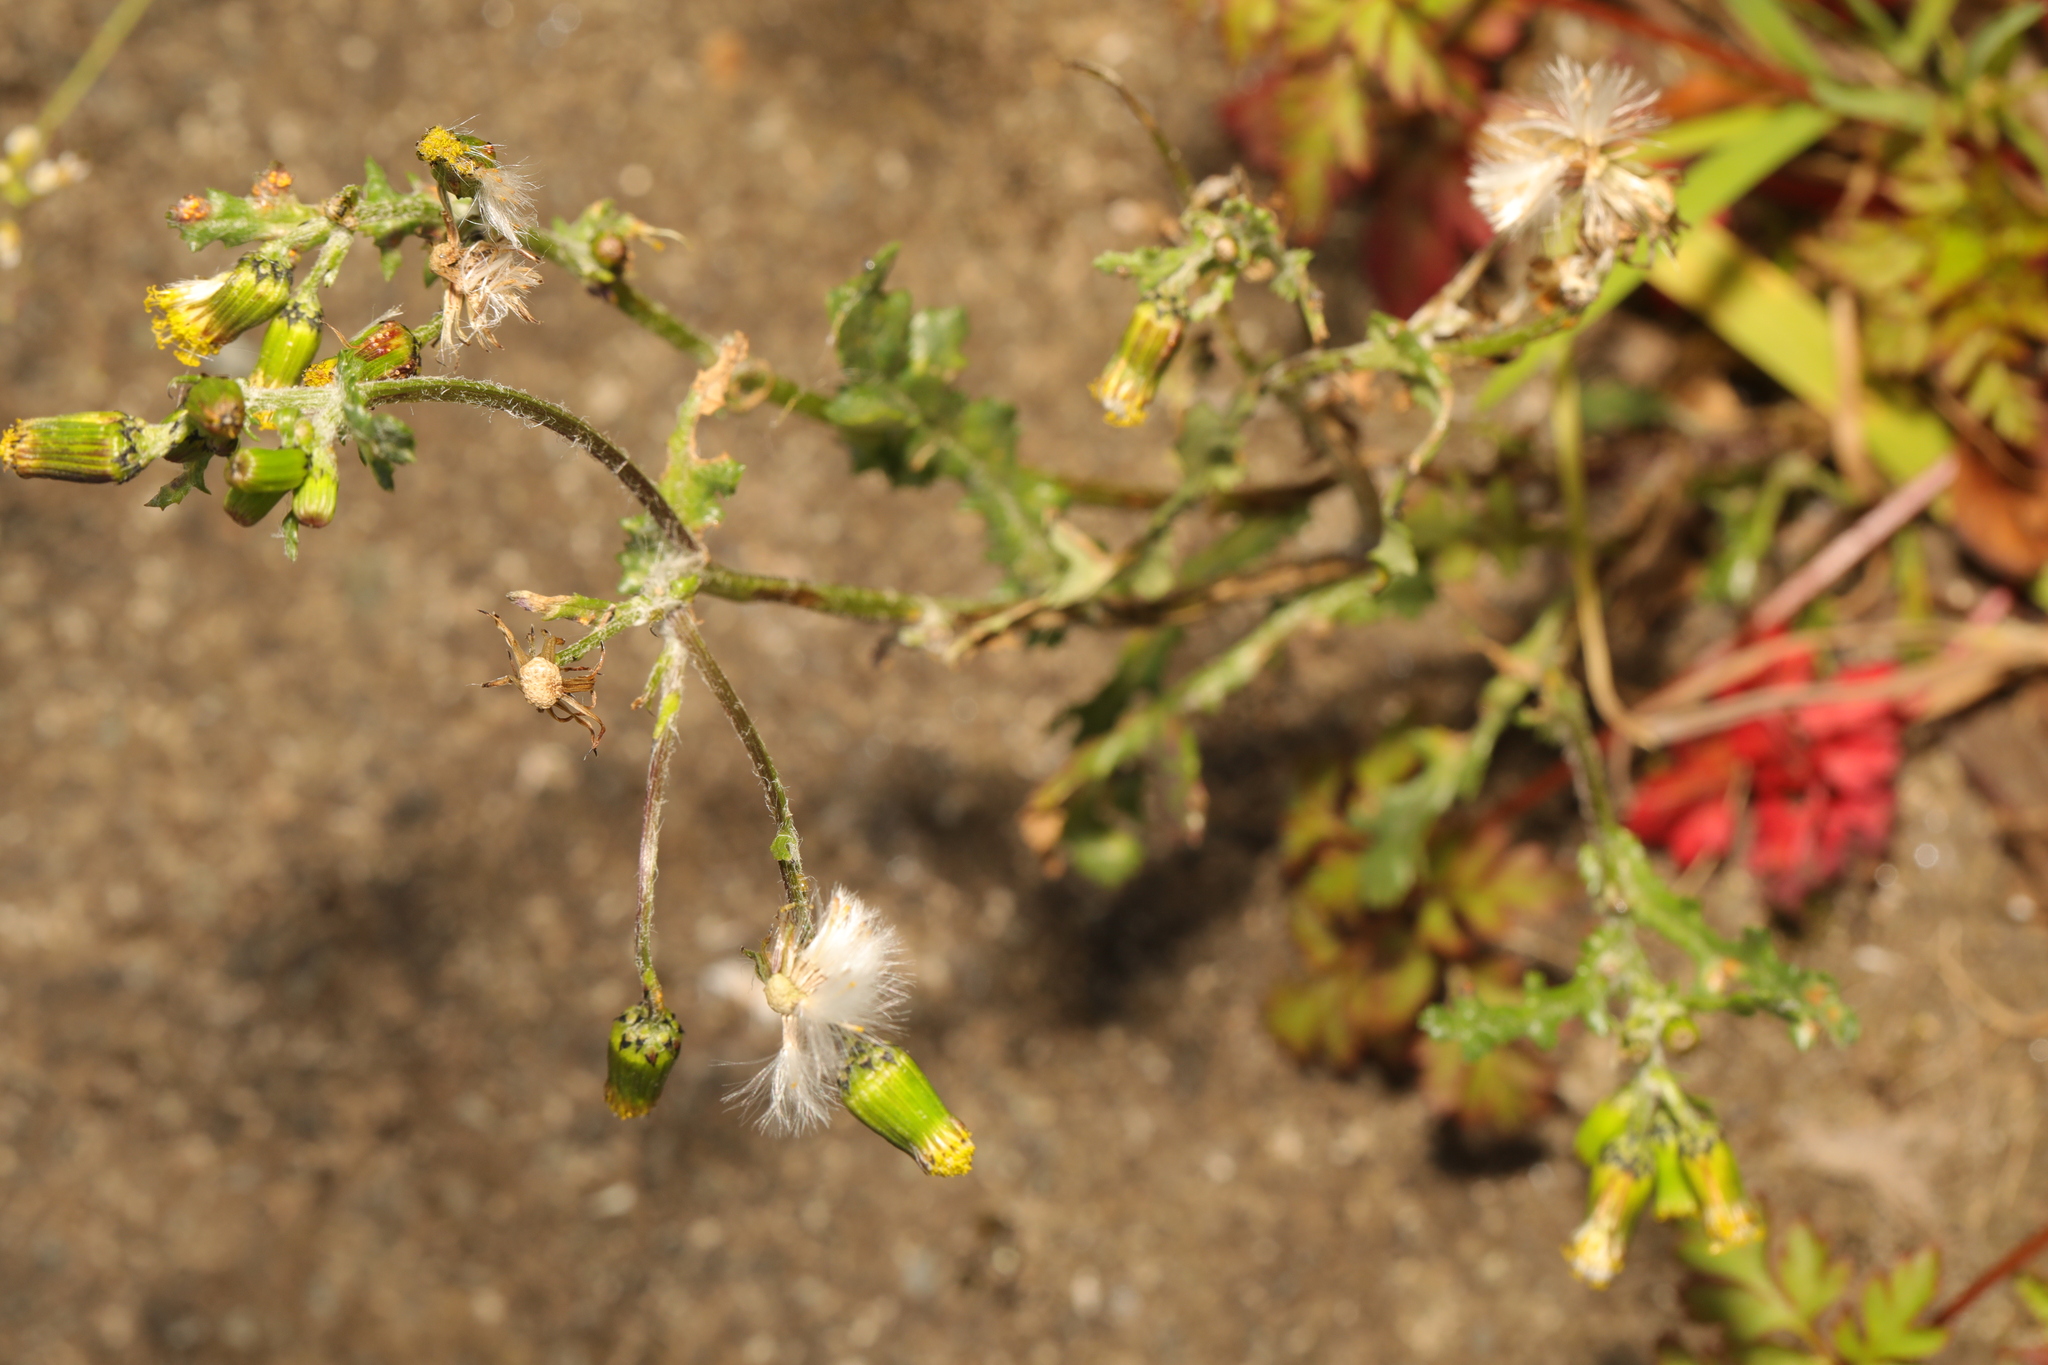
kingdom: Plantae
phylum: Tracheophyta
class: Magnoliopsida
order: Asterales
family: Asteraceae
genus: Senecio
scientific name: Senecio vulgaris
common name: Old-man-in-the-spring
